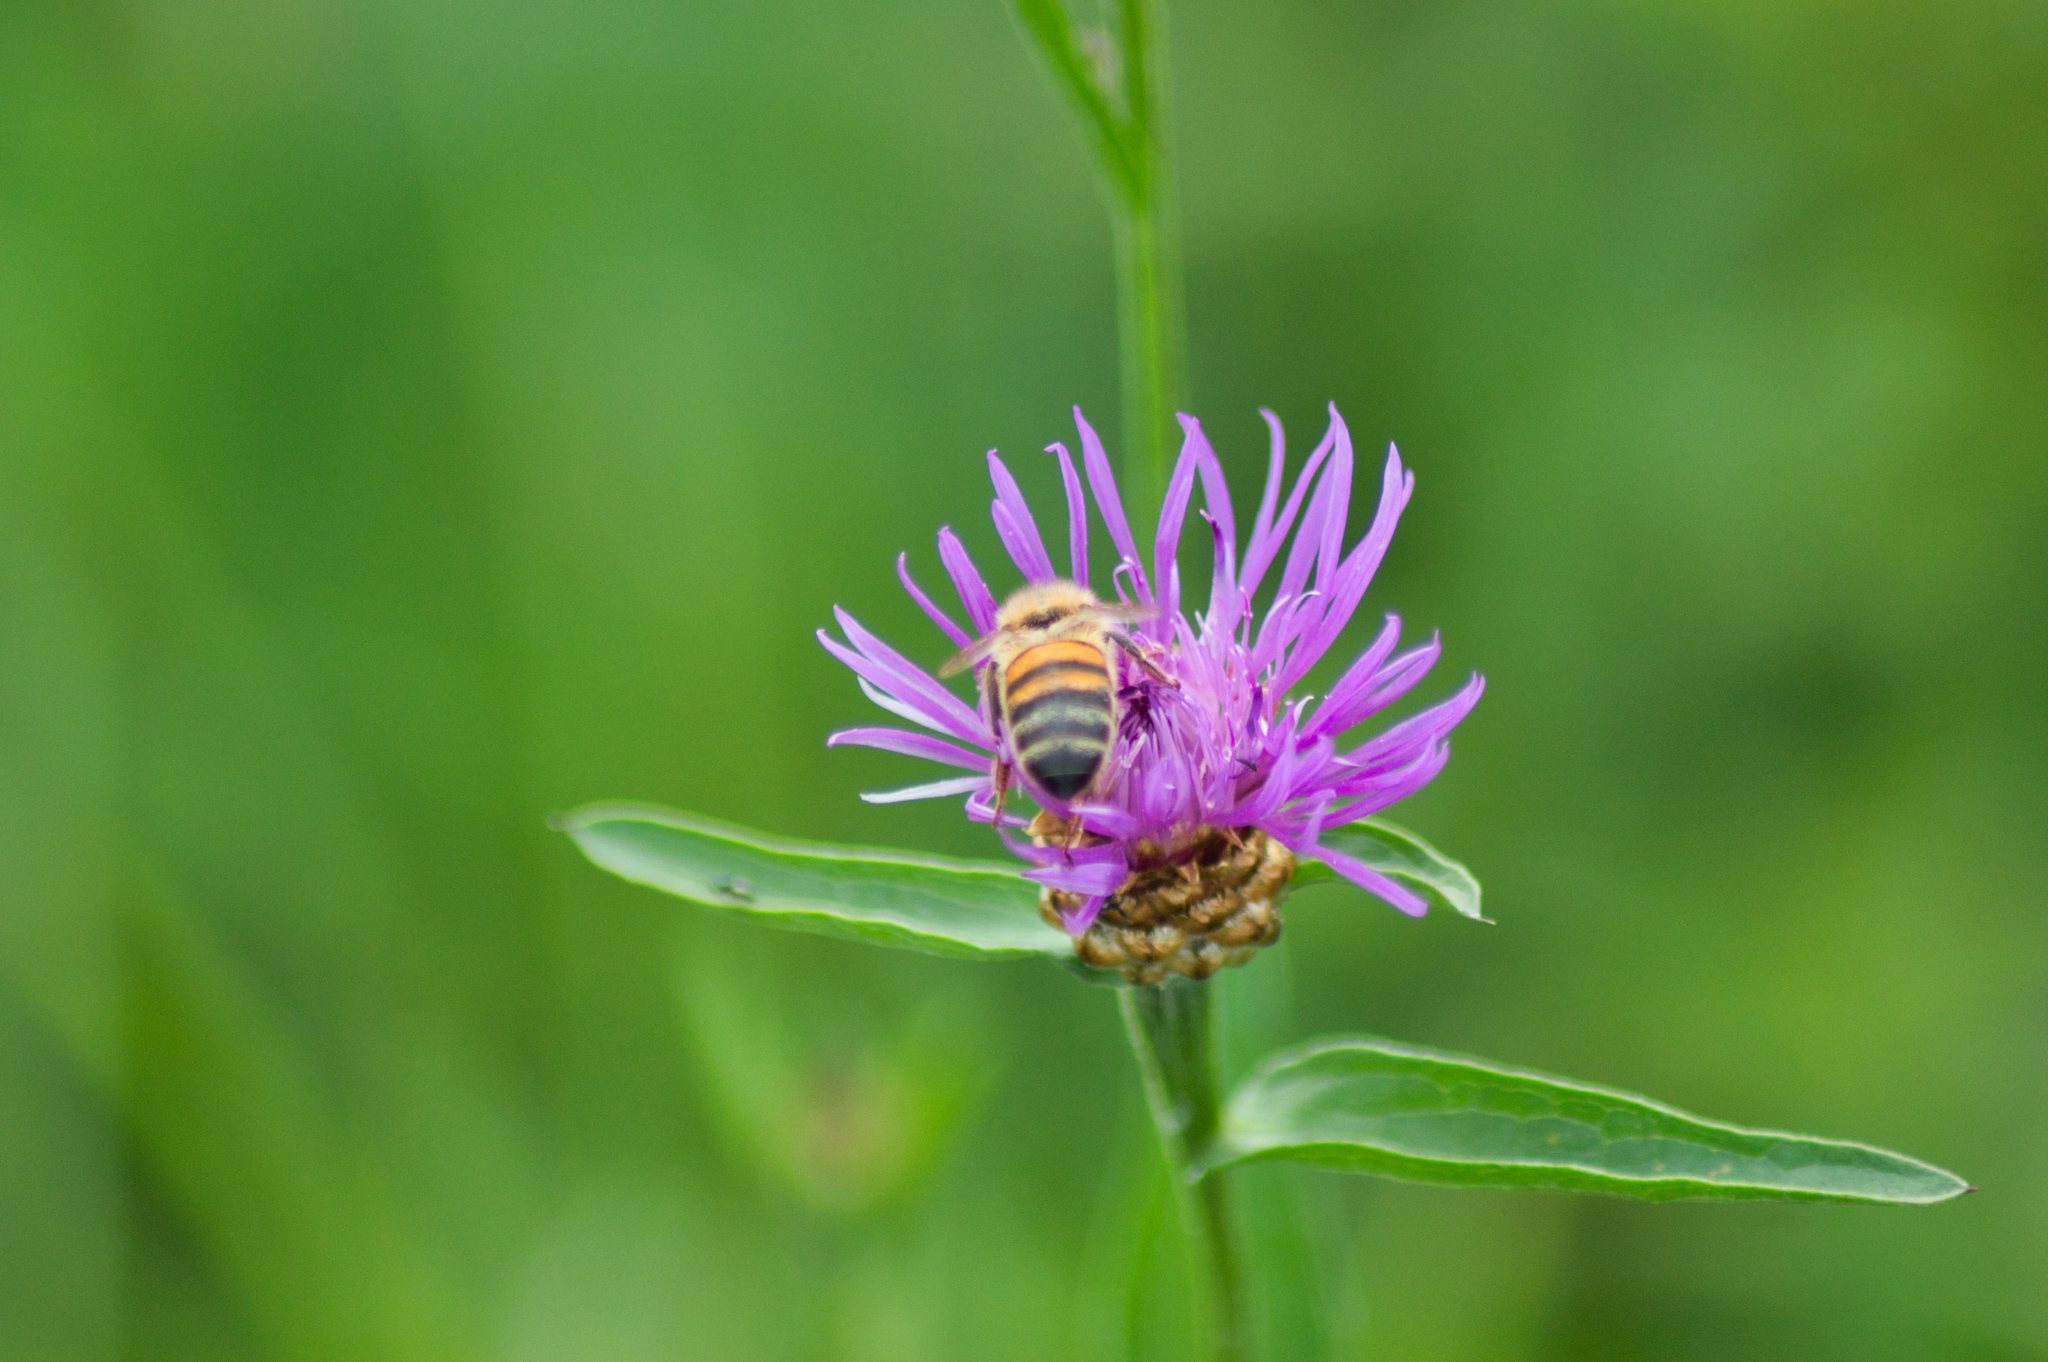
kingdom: Animalia
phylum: Arthropoda
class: Insecta
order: Hymenoptera
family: Apidae
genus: Apis
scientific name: Apis mellifera
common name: Honey bee
